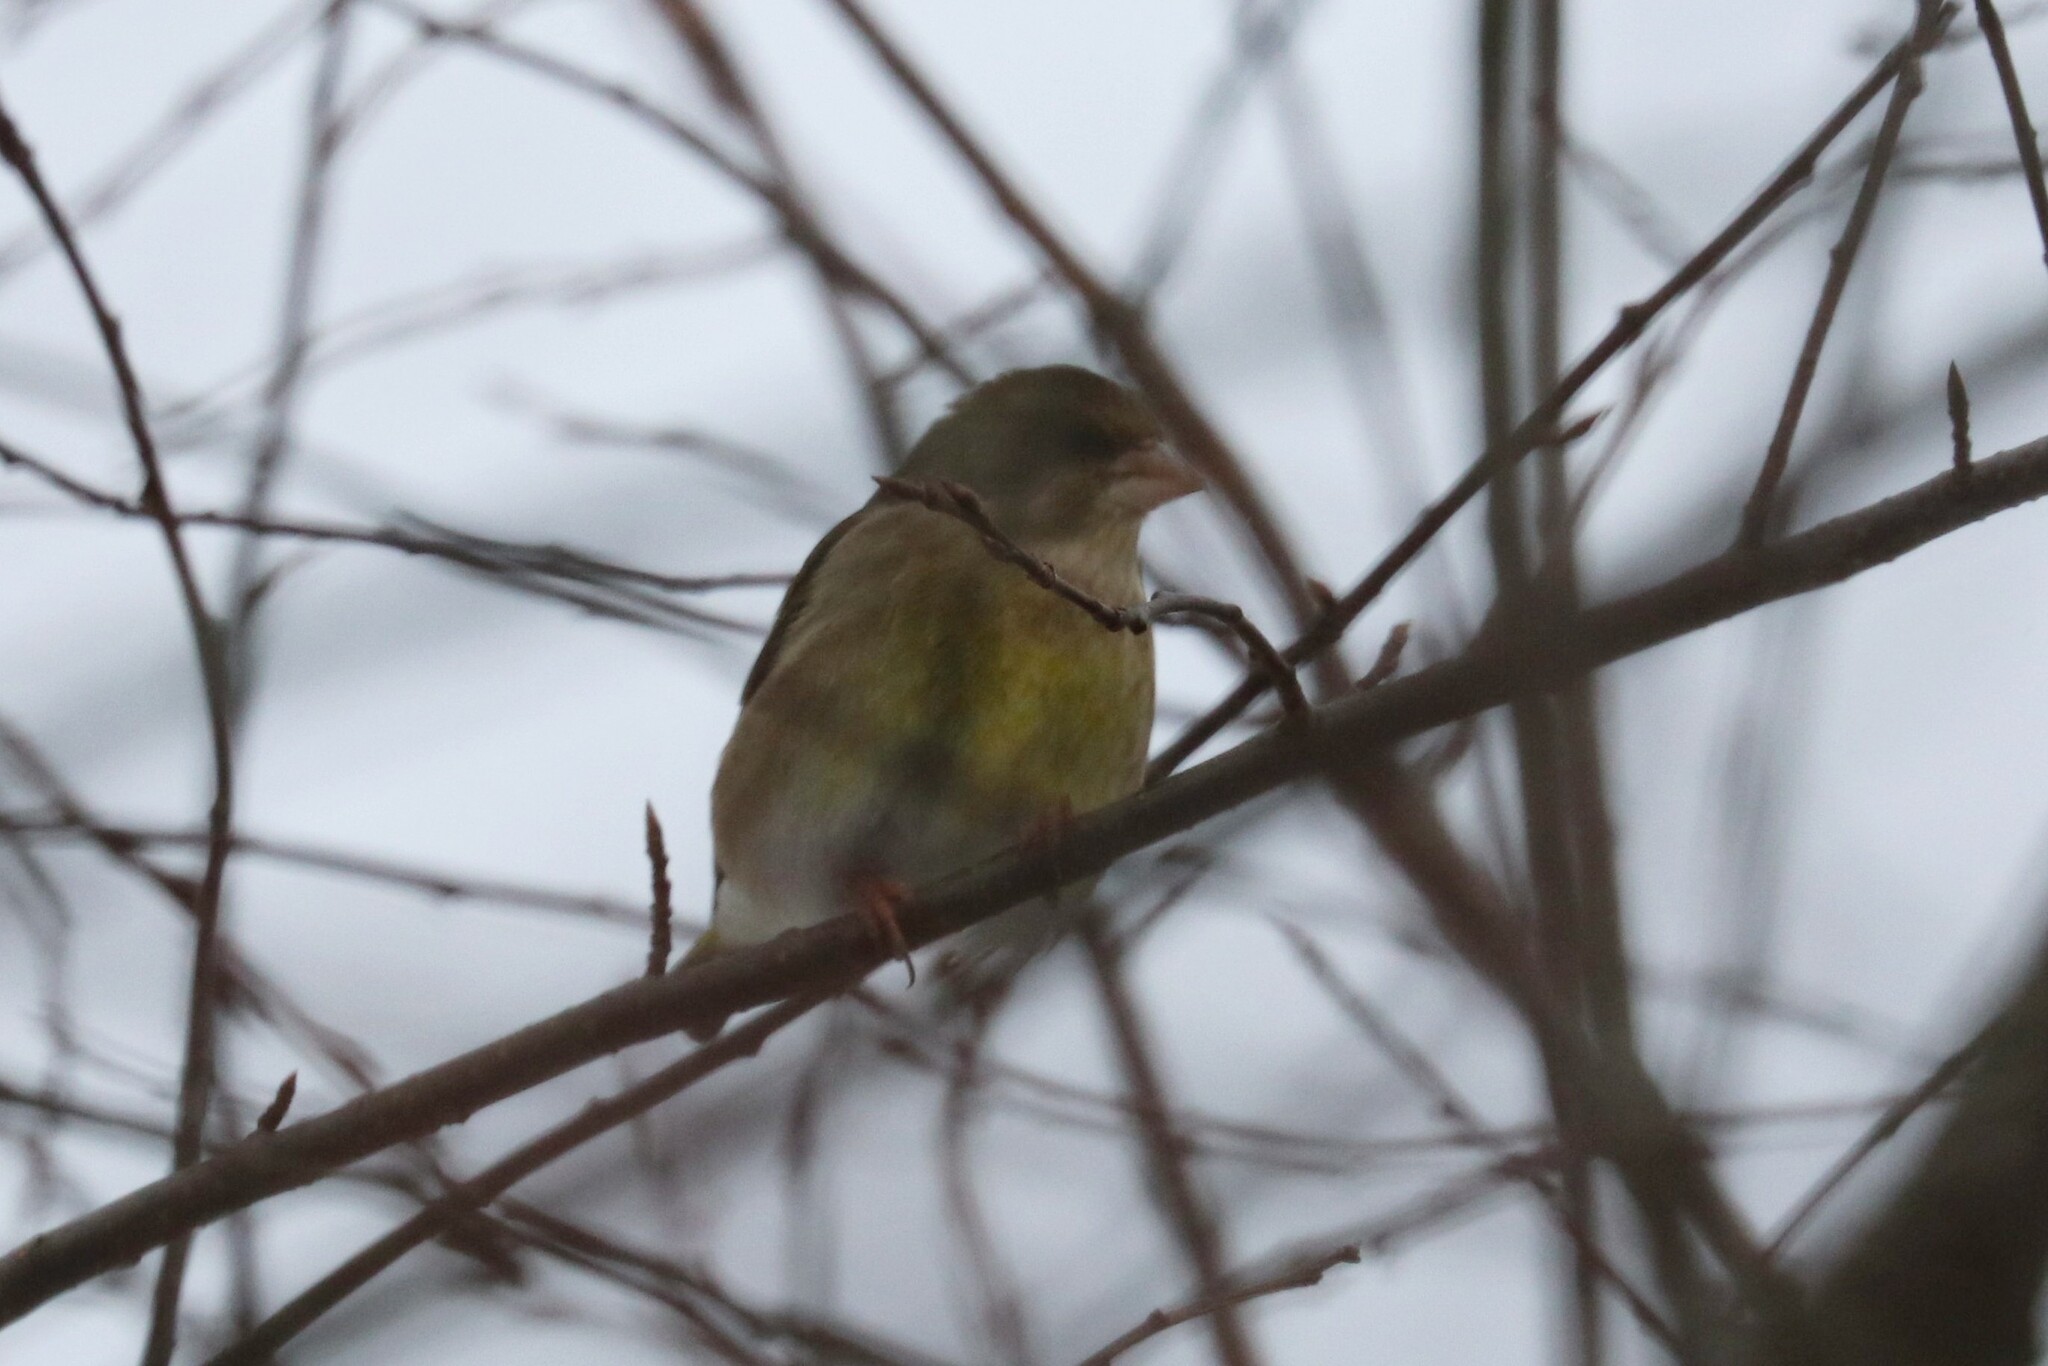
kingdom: Plantae
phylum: Tracheophyta
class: Liliopsida
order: Poales
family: Poaceae
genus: Chloris
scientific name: Chloris chloris
